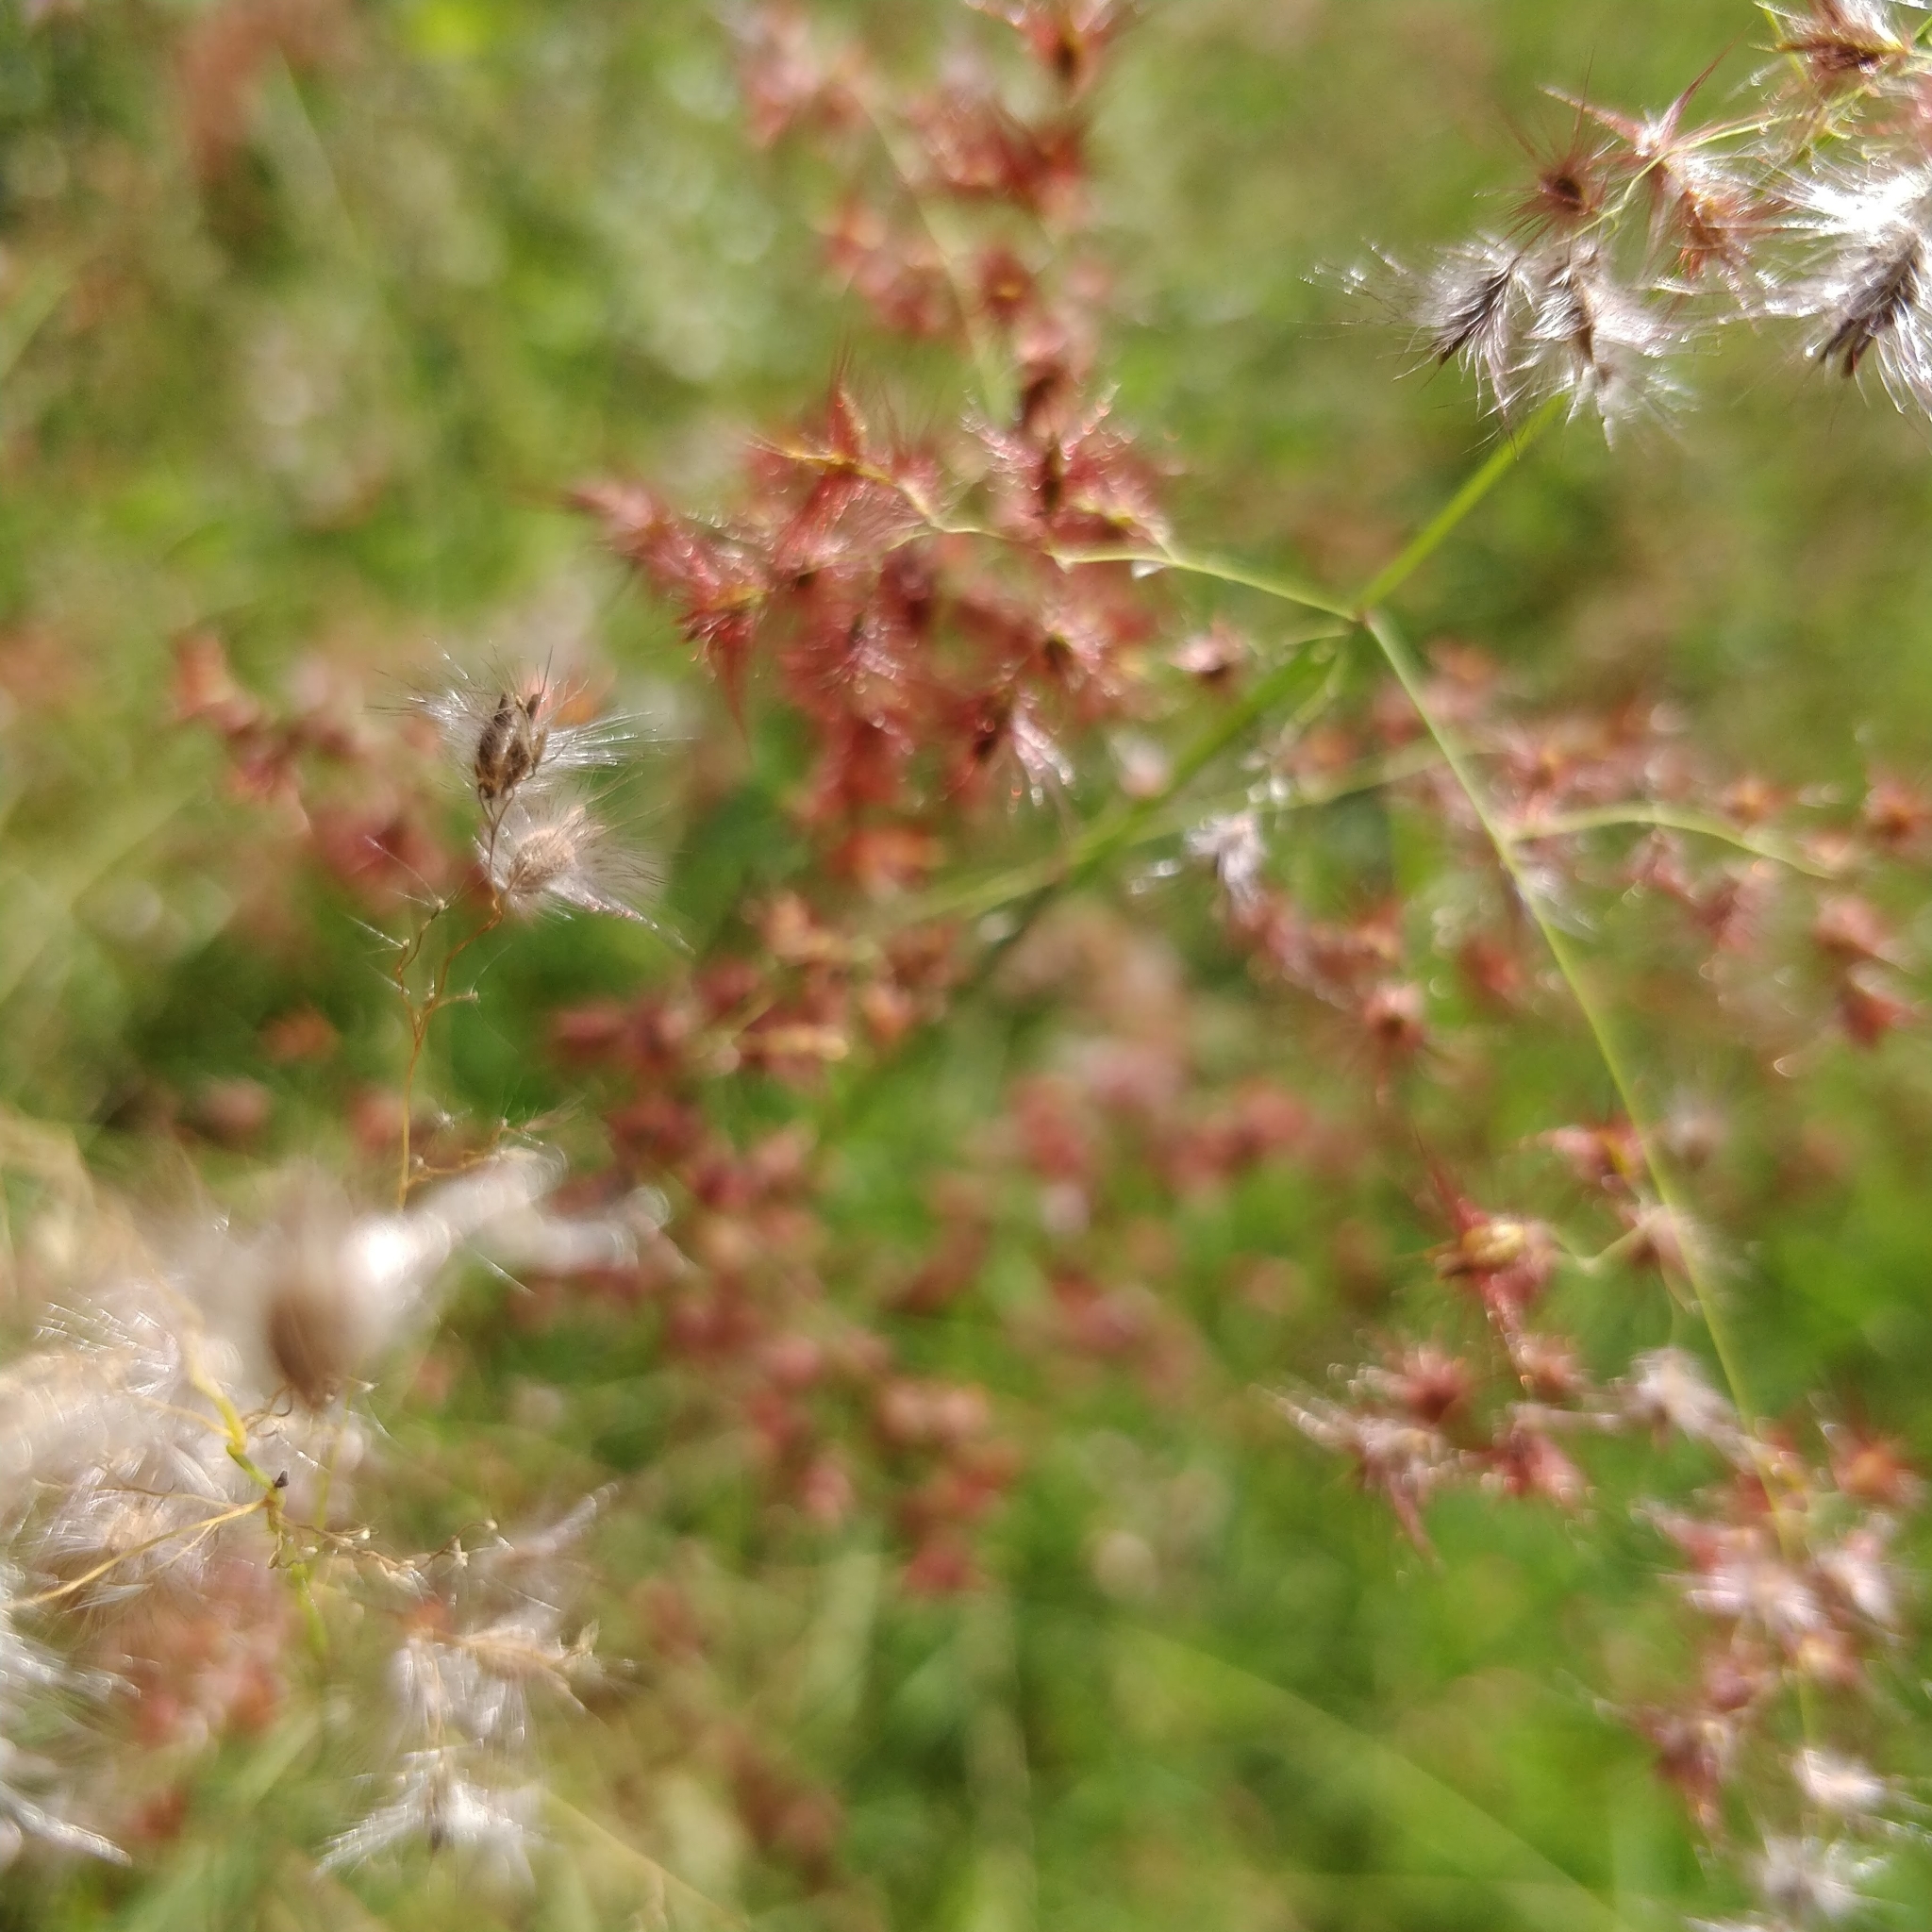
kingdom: Plantae
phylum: Tracheophyta
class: Liliopsida
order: Poales
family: Poaceae
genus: Melinis
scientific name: Melinis repens
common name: Rose natal grass
